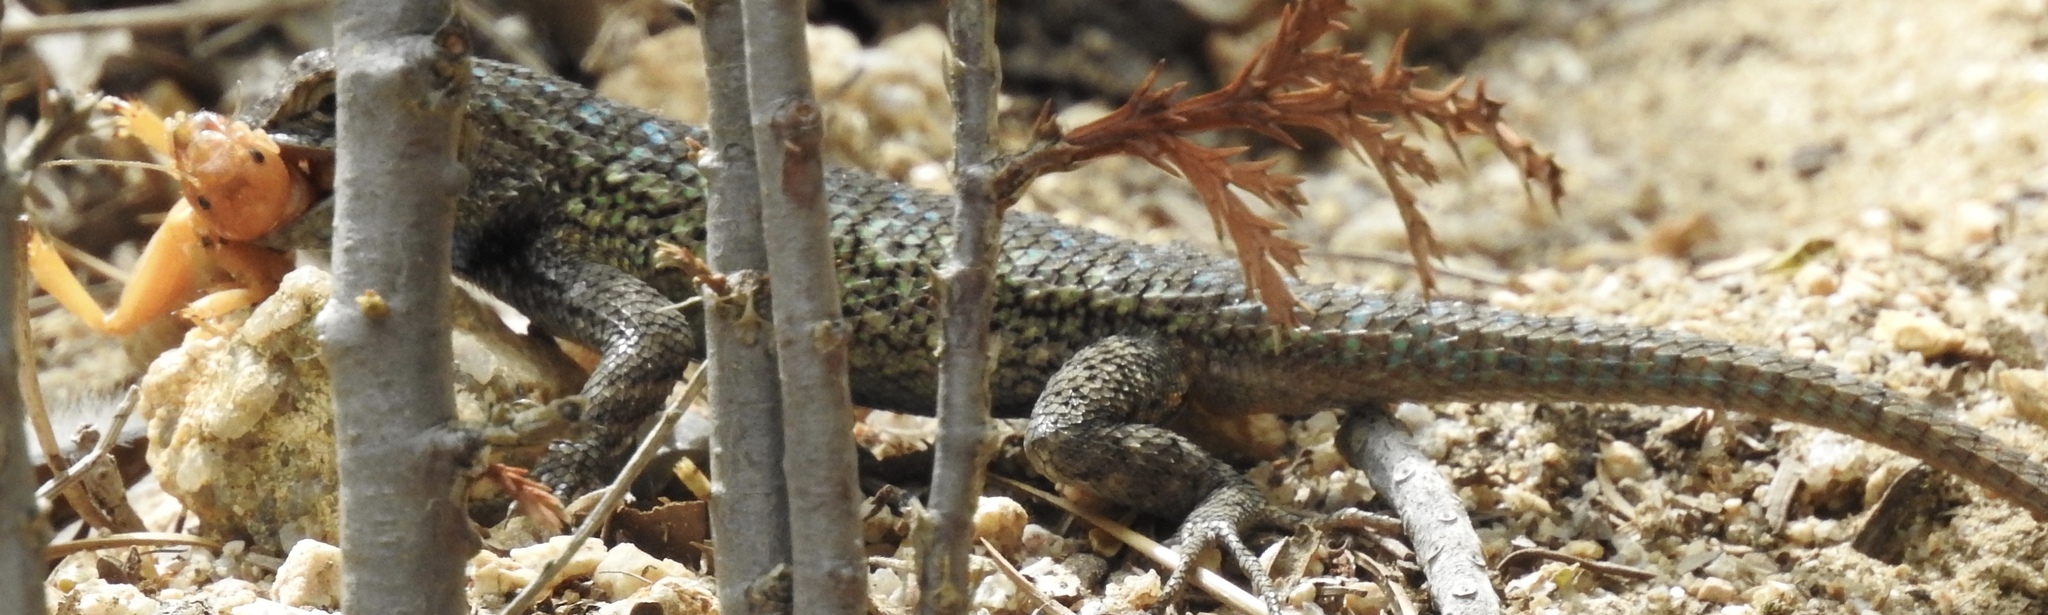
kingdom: Animalia
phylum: Chordata
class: Squamata
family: Phrynosomatidae
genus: Sceloporus
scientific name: Sceloporus occidentalis
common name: Western fence lizard
